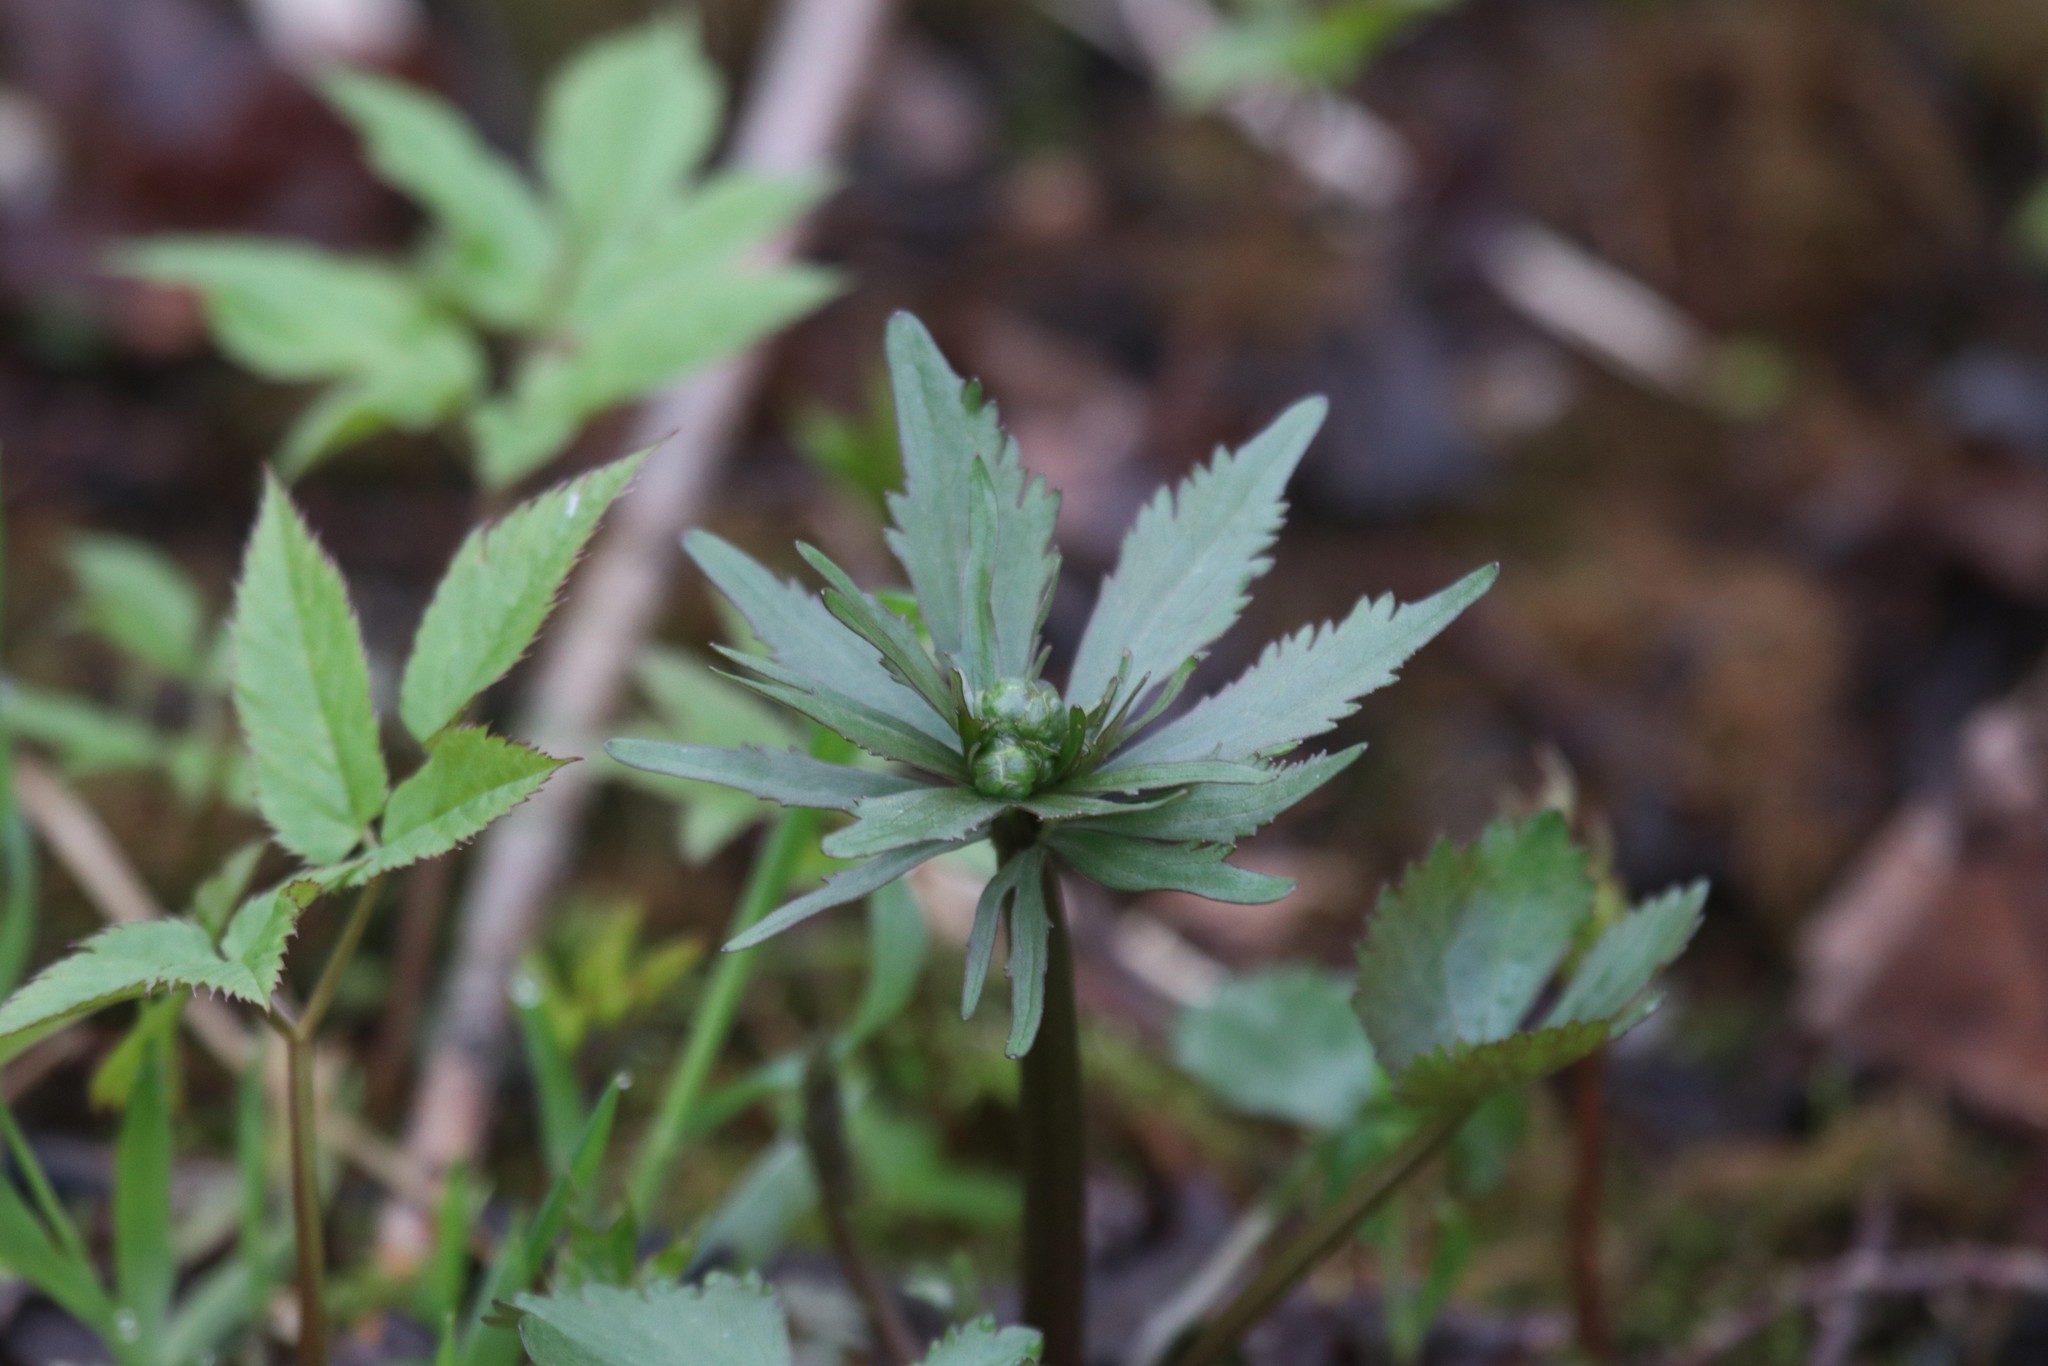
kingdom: Plantae
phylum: Tracheophyta
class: Magnoliopsida
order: Ranunculales
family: Ranunculaceae
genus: Ranunculus
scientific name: Ranunculus cassubicus
